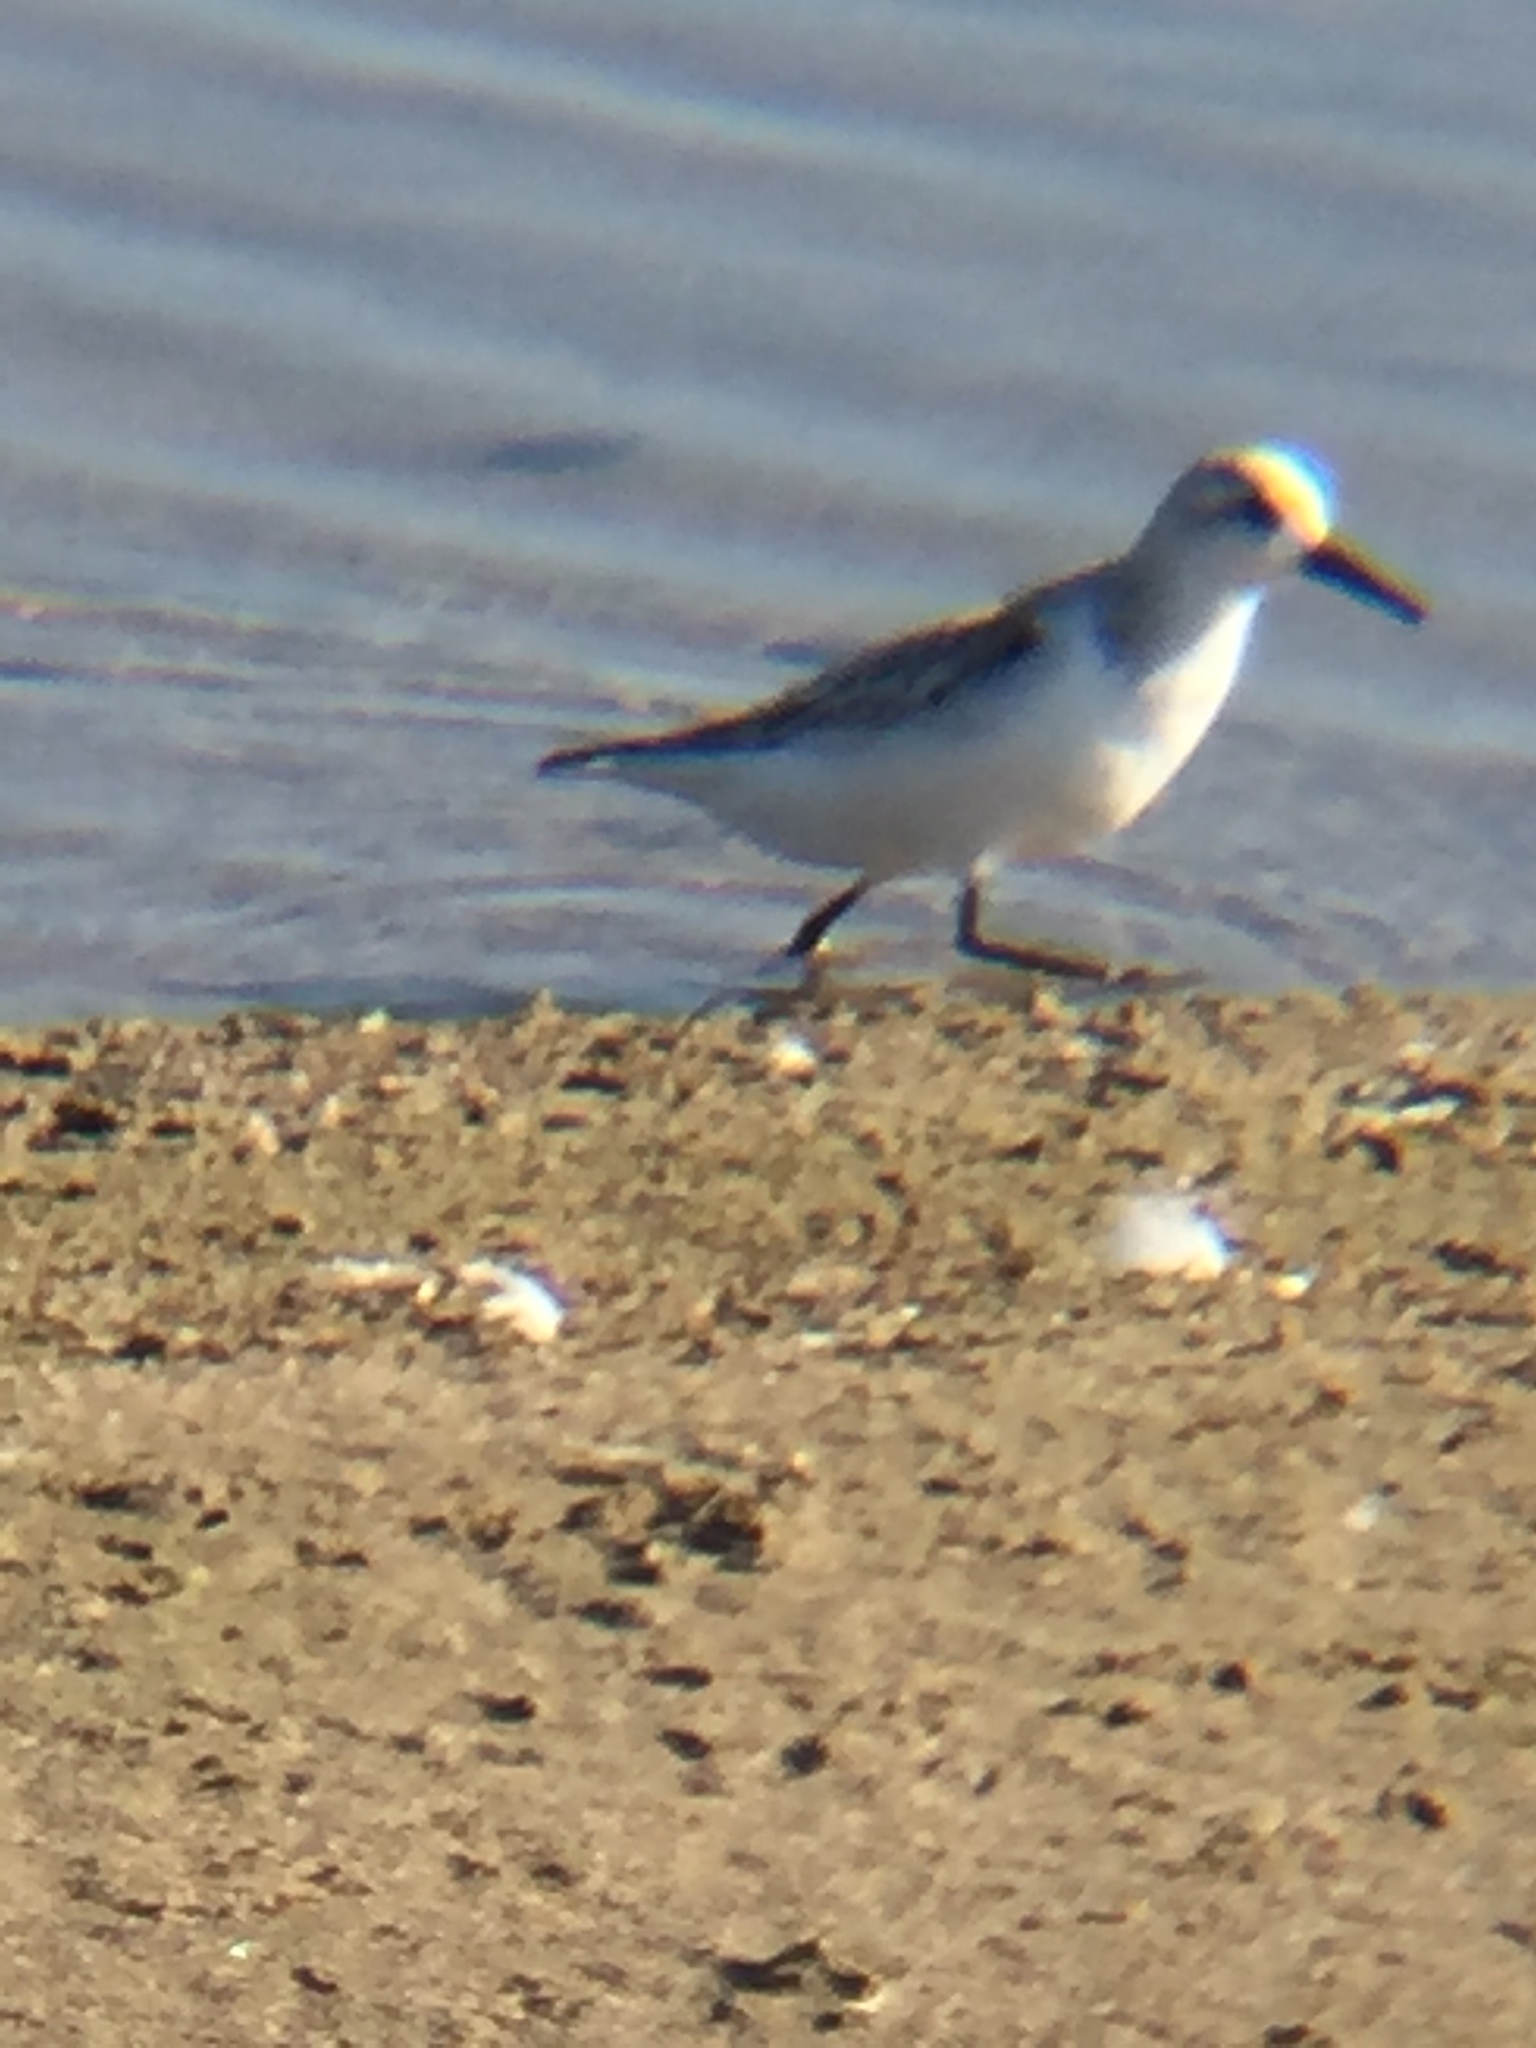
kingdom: Animalia
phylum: Chordata
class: Aves
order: Charadriiformes
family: Scolopacidae
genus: Calidris
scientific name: Calidris alba
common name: Sanderling
